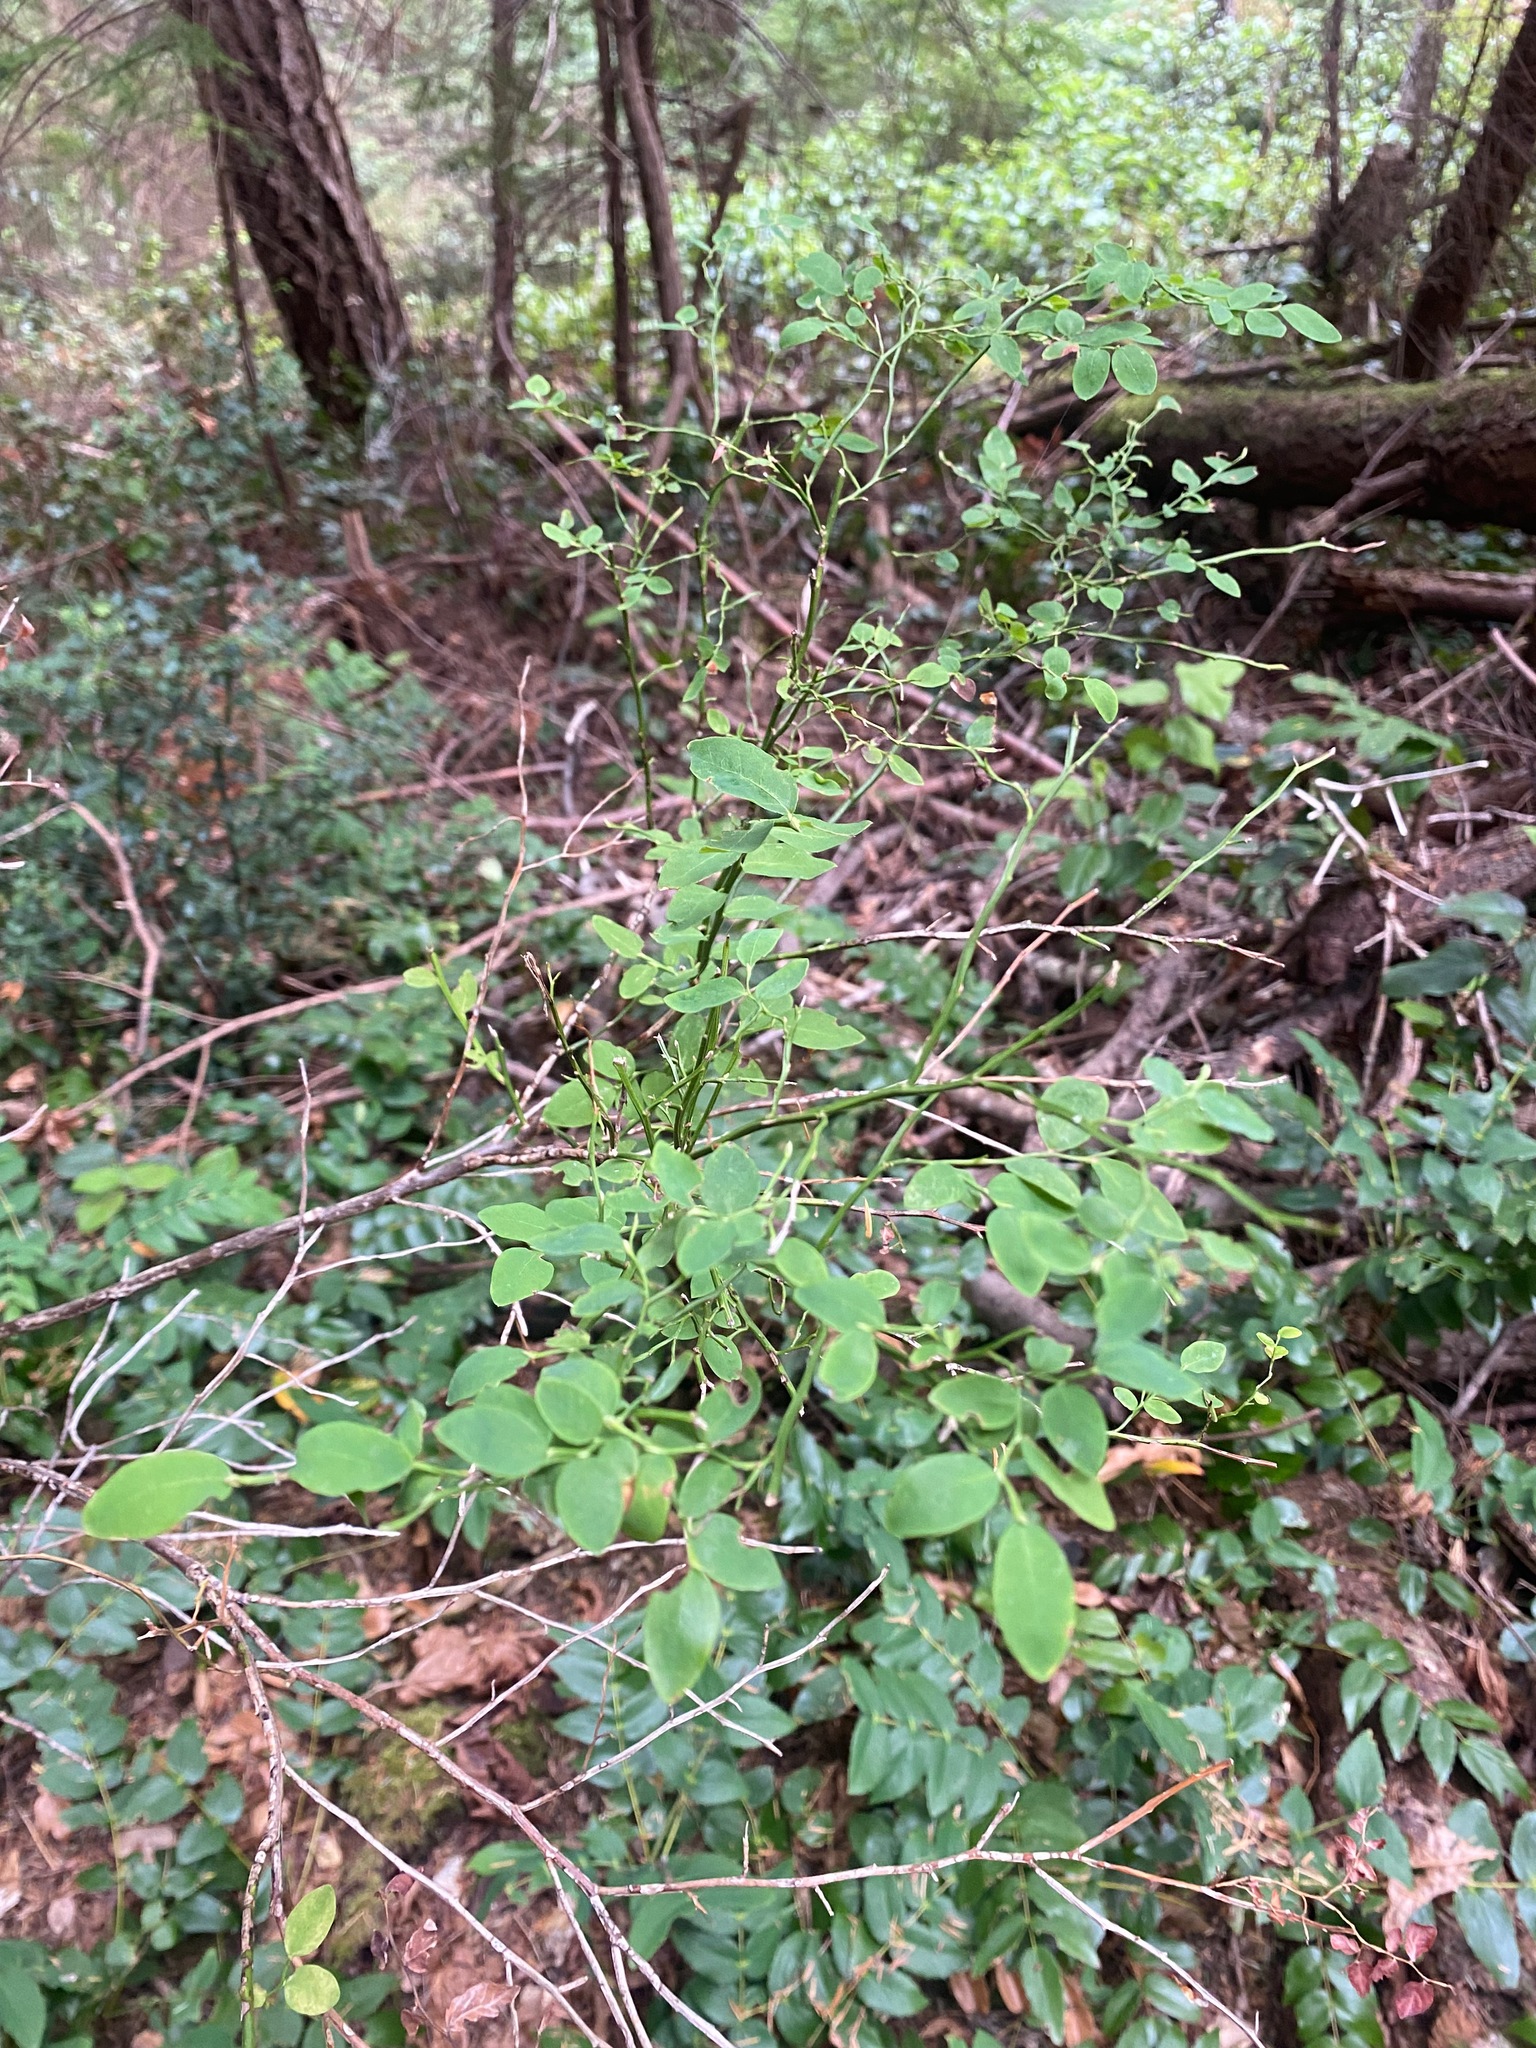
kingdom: Plantae
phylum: Tracheophyta
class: Magnoliopsida
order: Ericales
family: Ericaceae
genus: Vaccinium
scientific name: Vaccinium parvifolium
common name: Red-huckleberry
